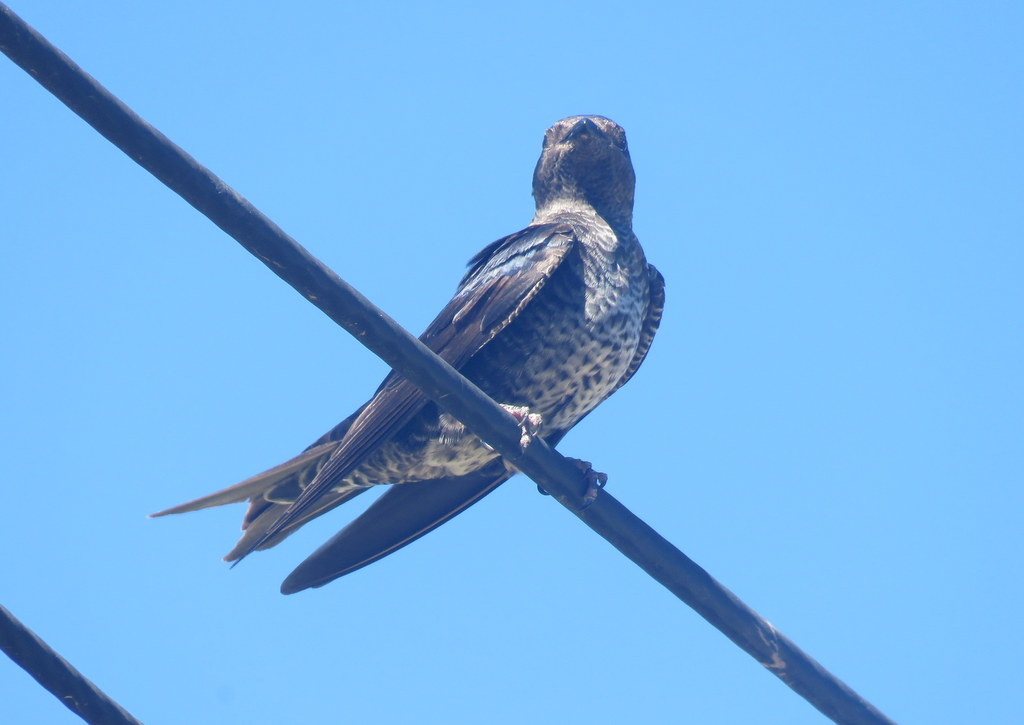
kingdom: Animalia
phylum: Chordata
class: Aves
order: Passeriformes
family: Hirundinidae
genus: Progne
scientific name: Progne elegans
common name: Southern martin
